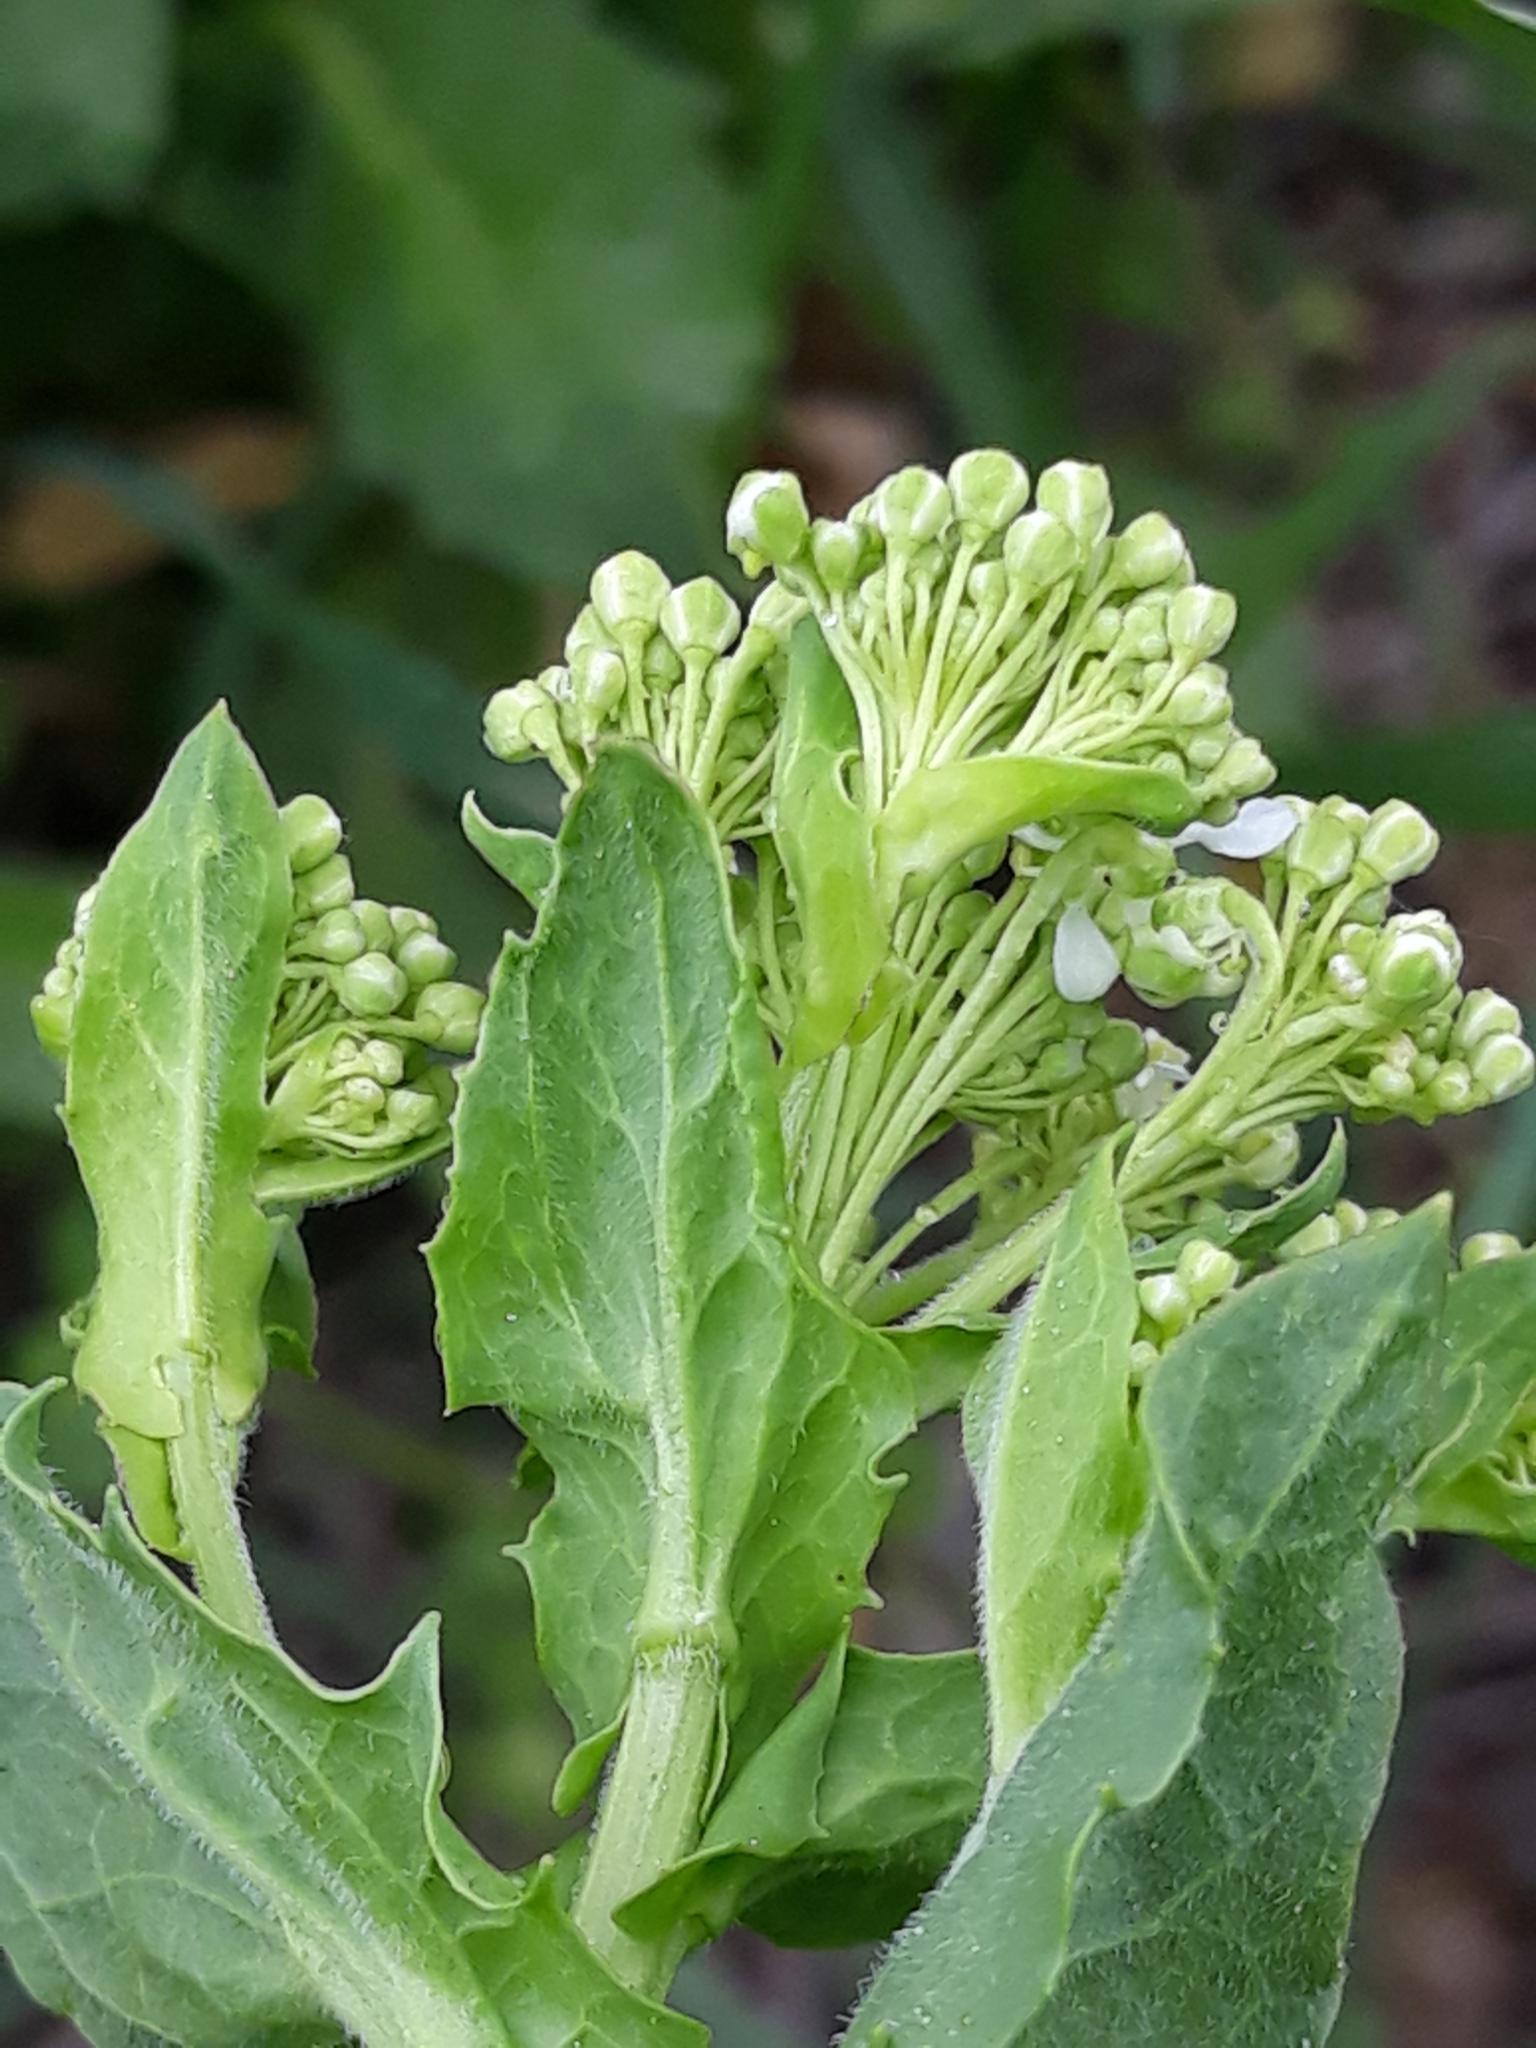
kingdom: Plantae
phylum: Tracheophyta
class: Magnoliopsida
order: Brassicales
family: Brassicaceae
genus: Lepidium
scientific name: Lepidium draba
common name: Hoary cress
